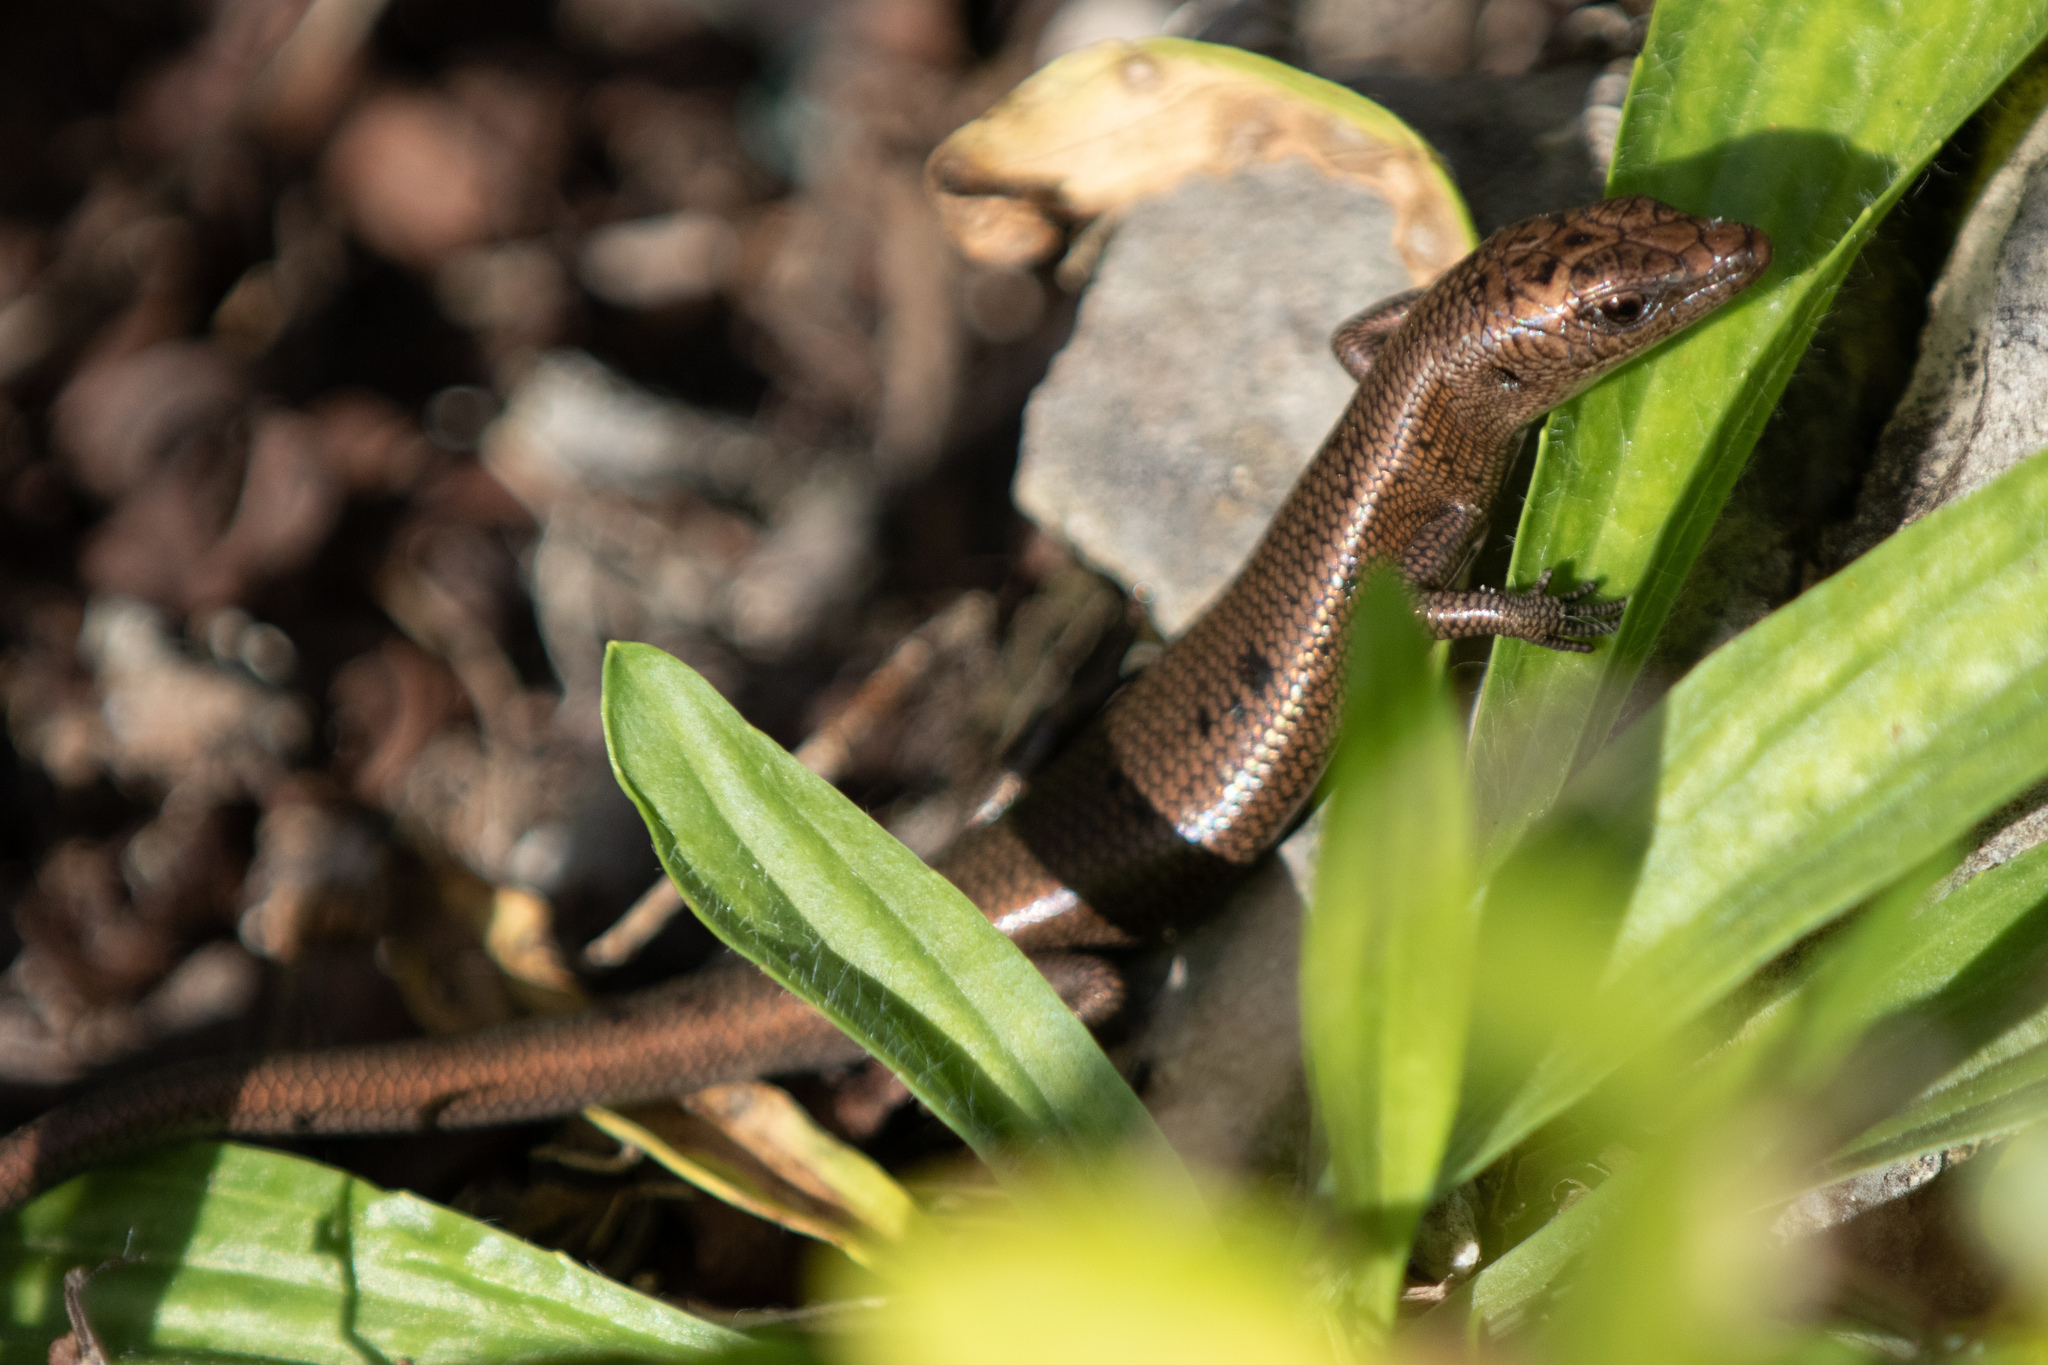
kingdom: Animalia
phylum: Chordata
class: Squamata
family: Scincidae
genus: Emoia
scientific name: Emoia impar
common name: Azure-tailed skink
